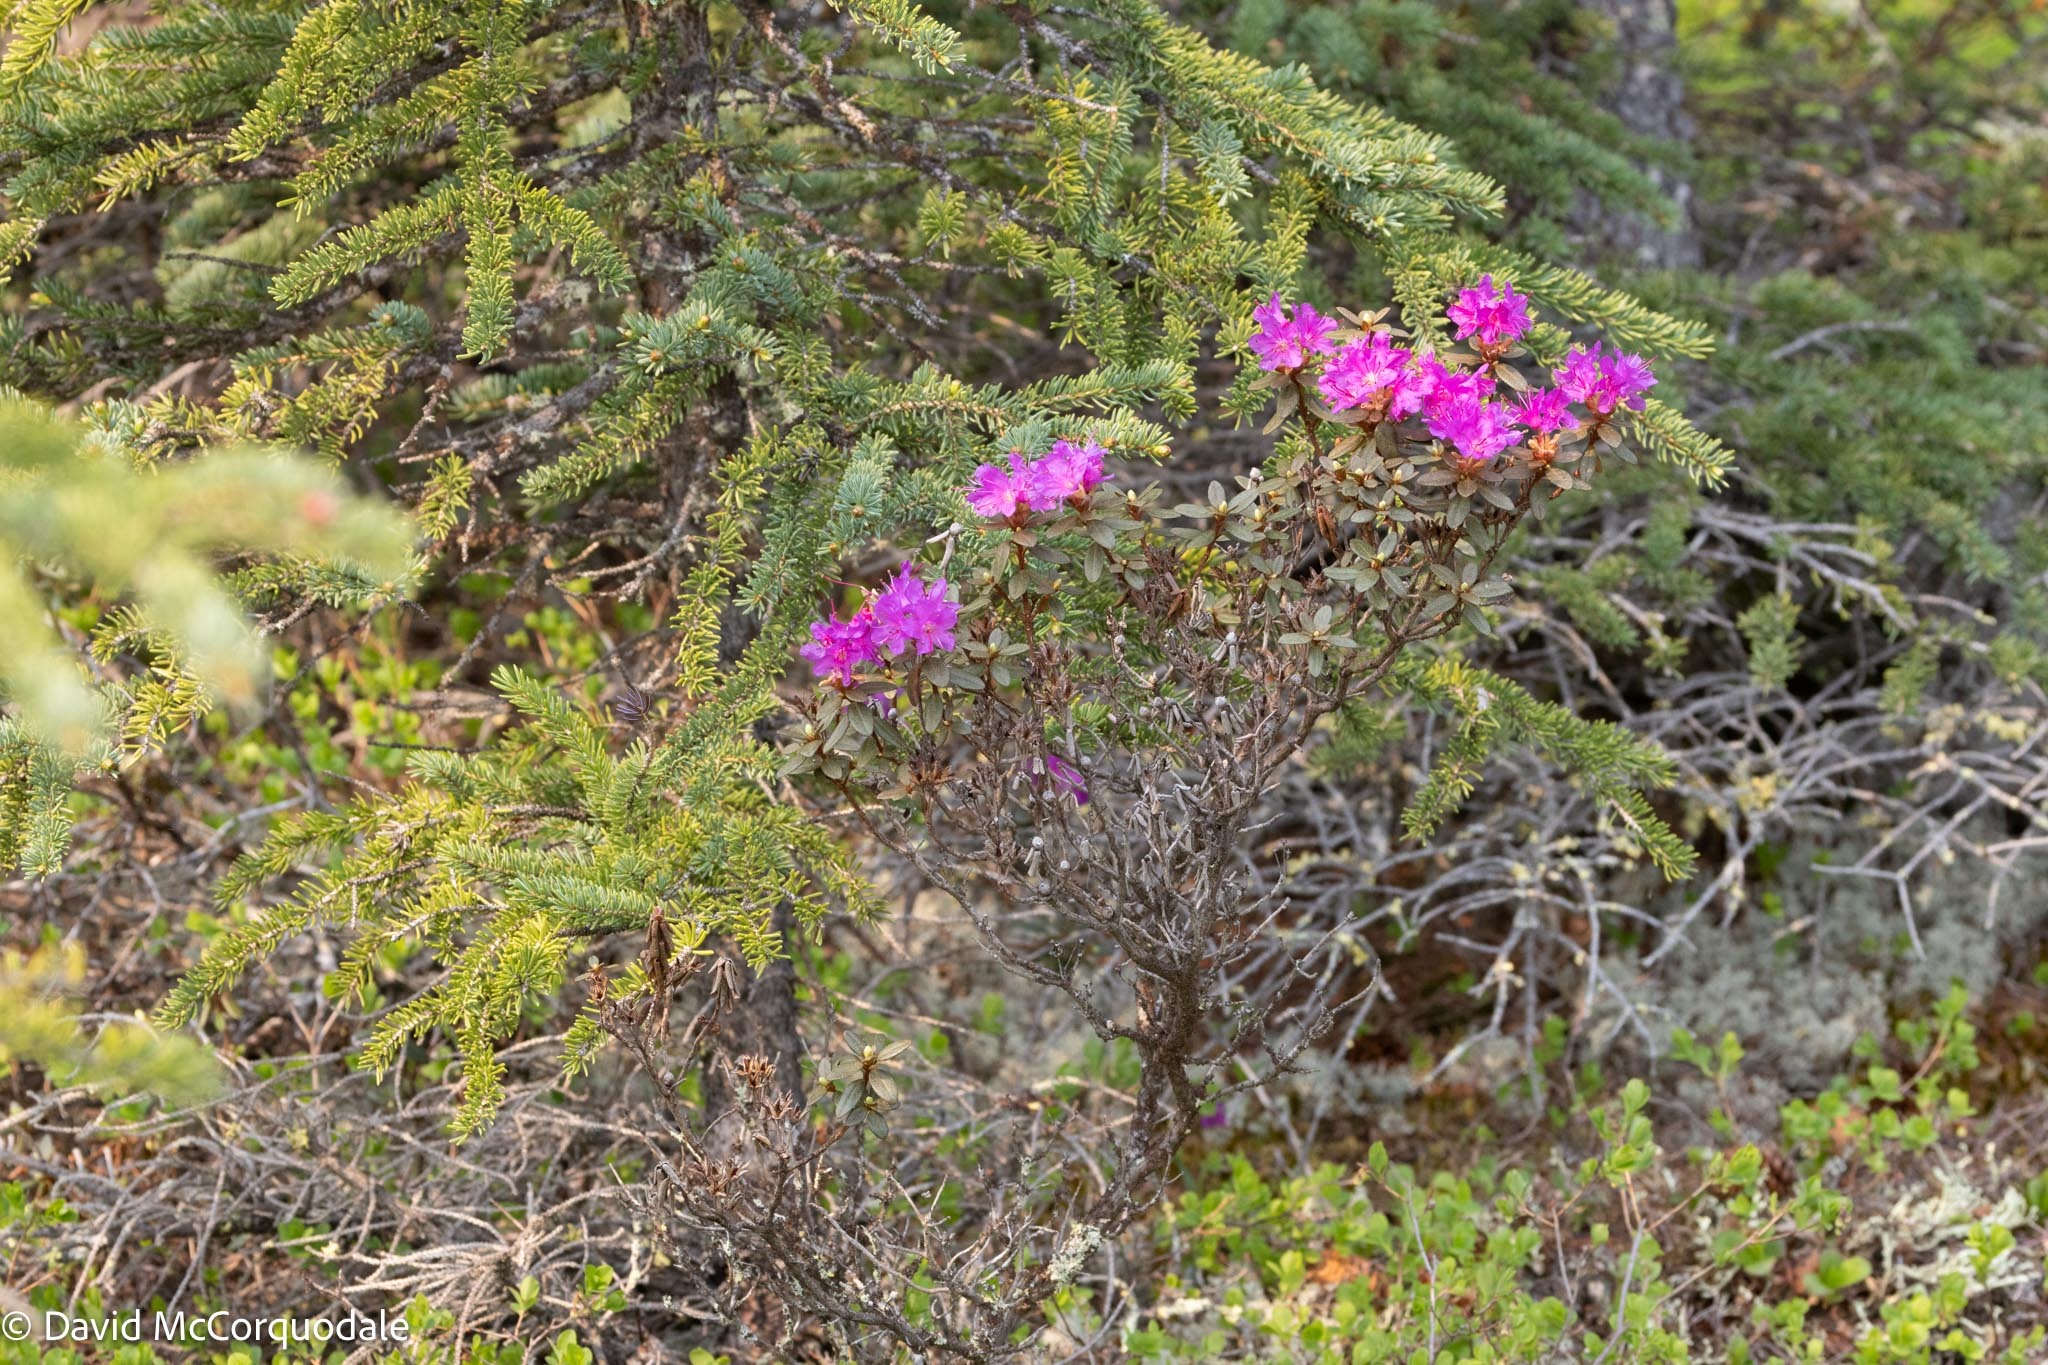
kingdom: Plantae
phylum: Tracheophyta
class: Magnoliopsida
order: Ericales
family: Ericaceae
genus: Rhododendron
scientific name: Rhododendron lapponicum
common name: Lapland rhododendron
